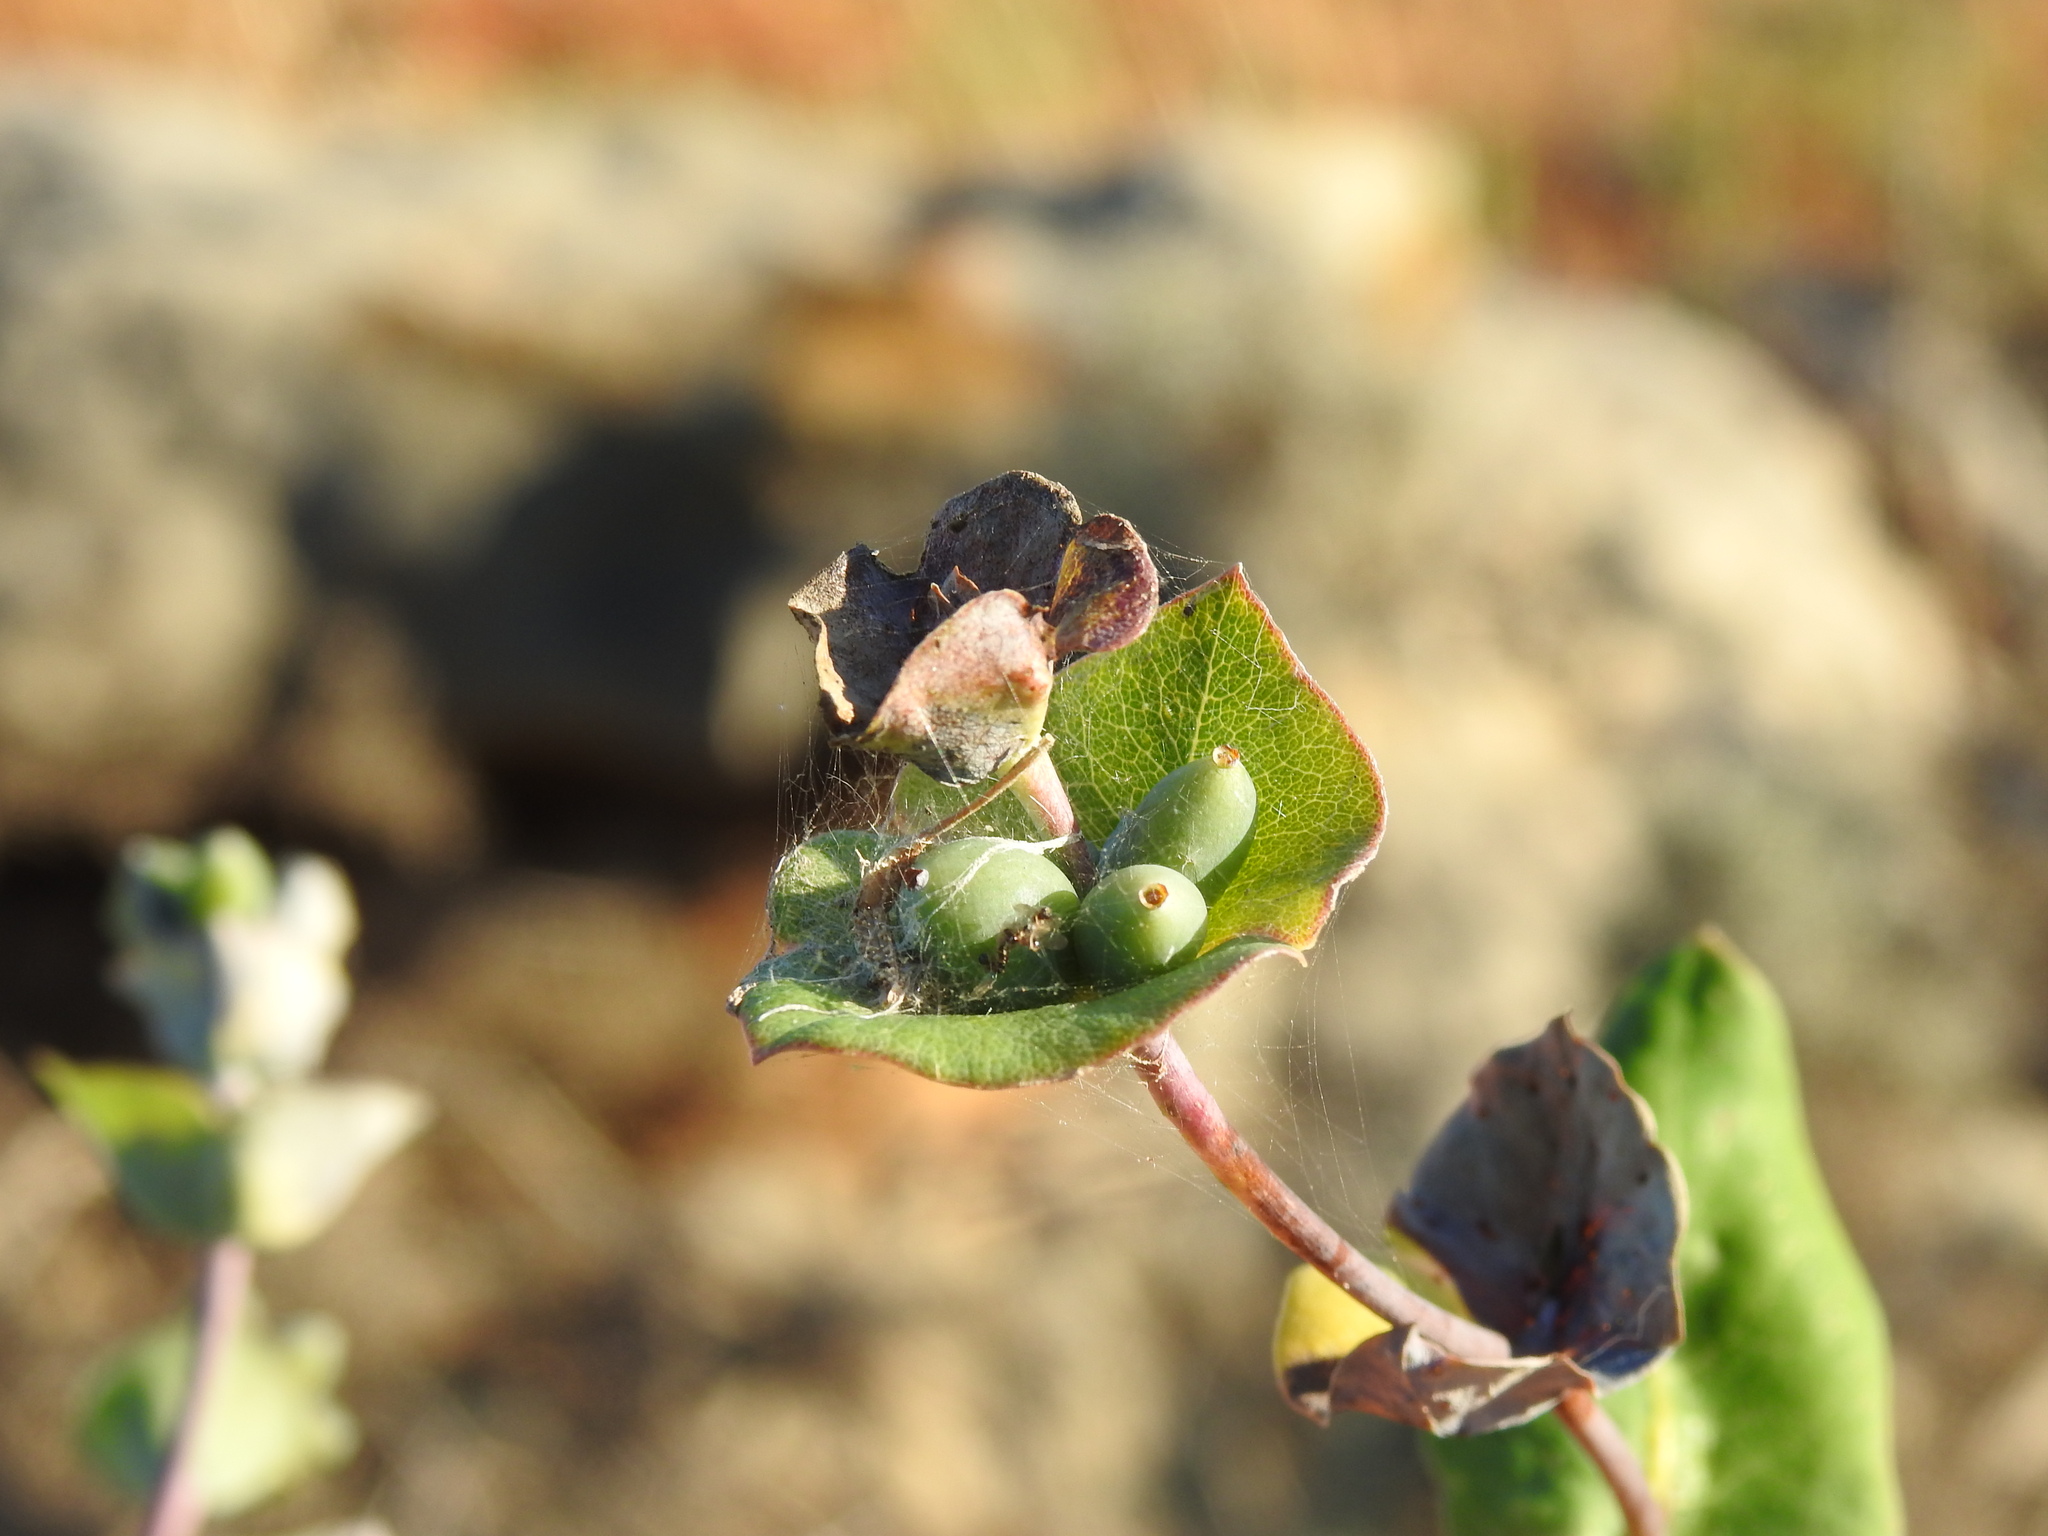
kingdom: Plantae
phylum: Tracheophyta
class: Magnoliopsida
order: Dipsacales
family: Caprifoliaceae
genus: Lonicera
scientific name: Lonicera implexa
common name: Minorca honeysuckle
